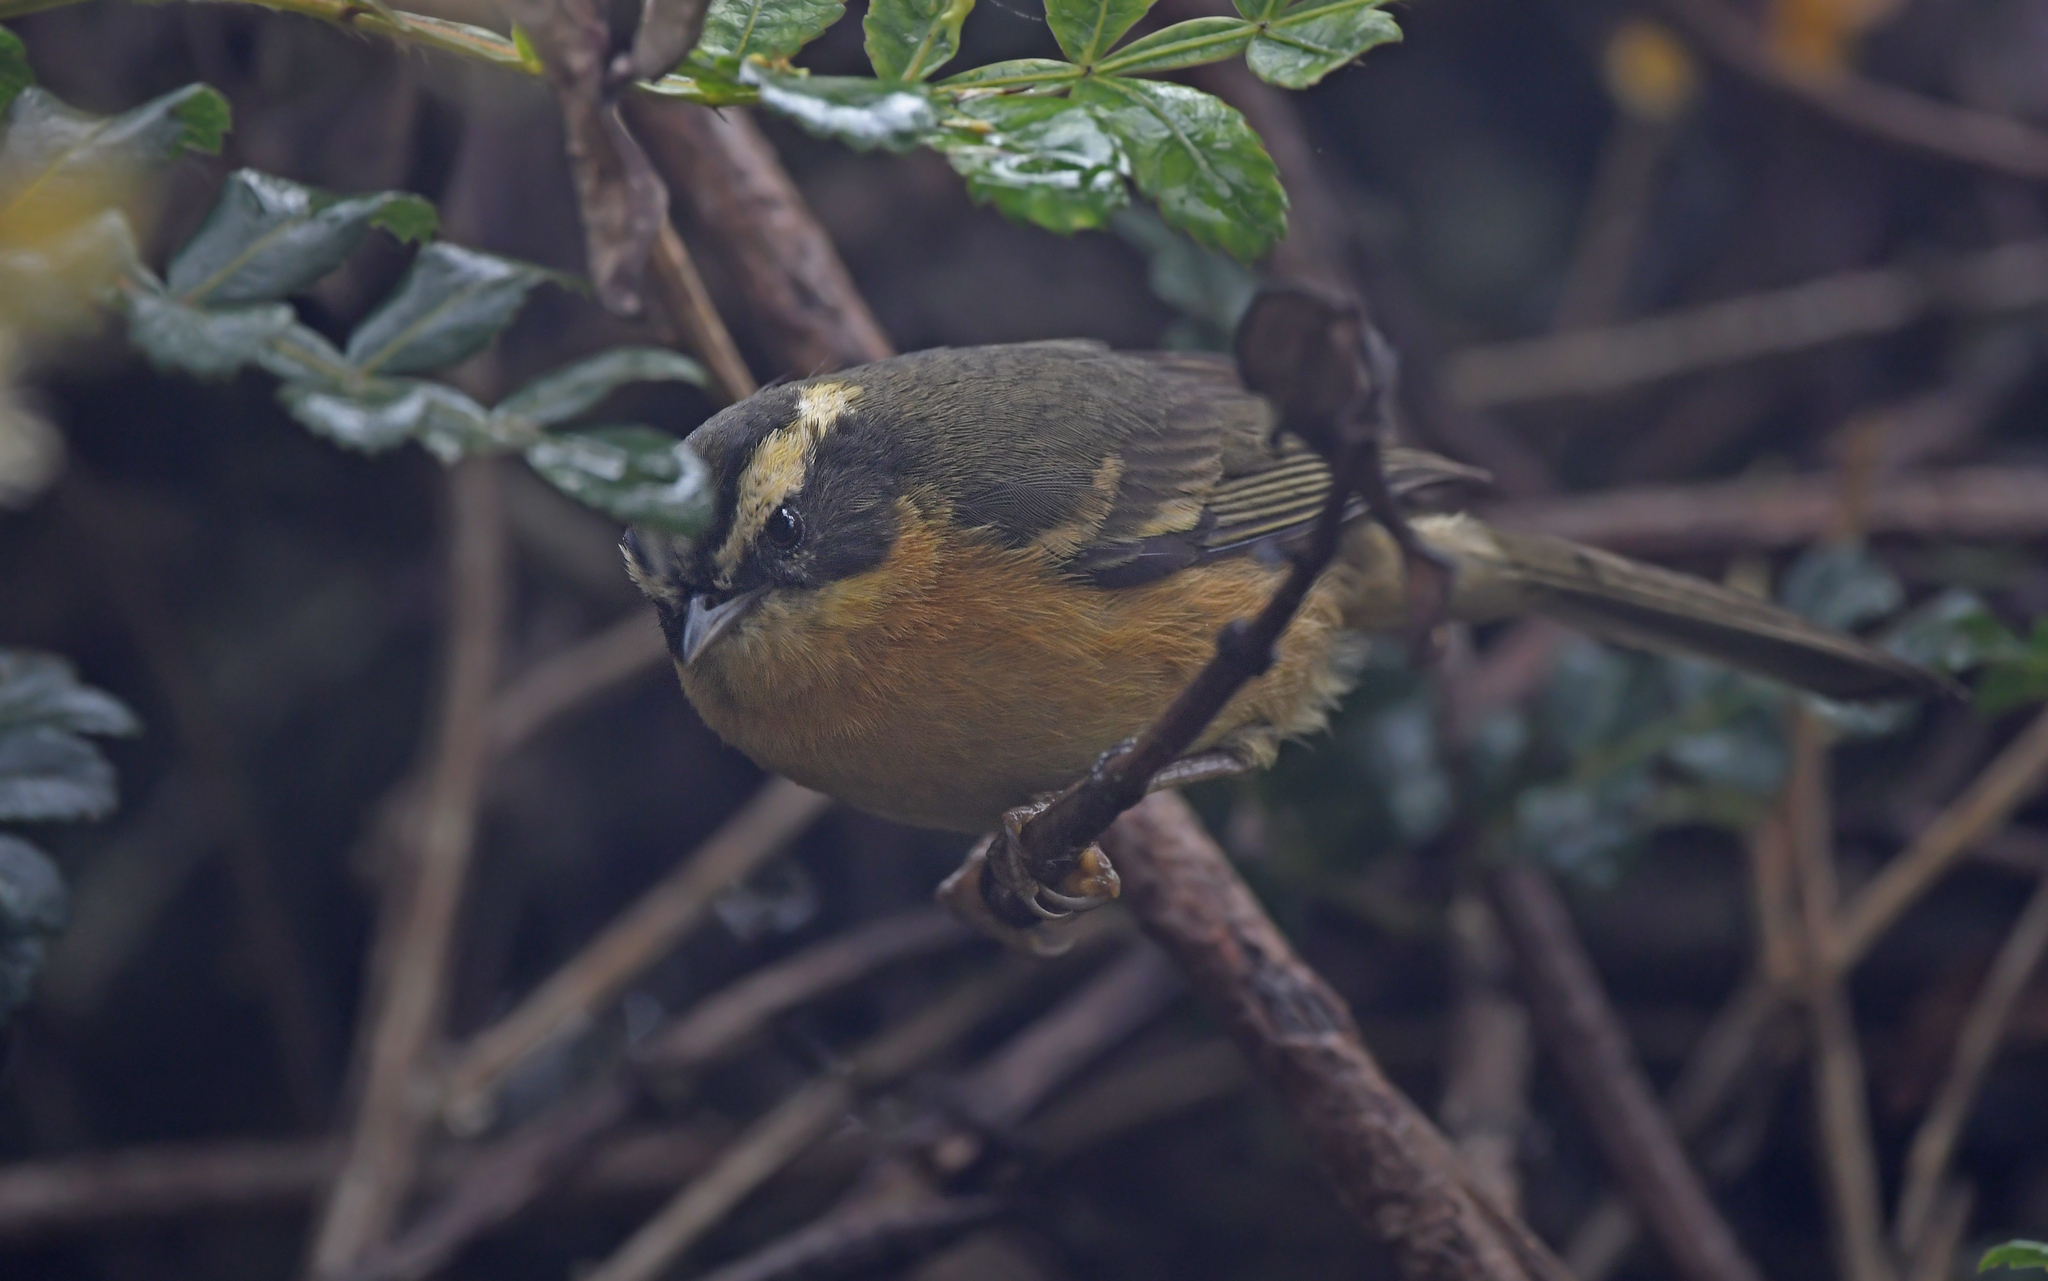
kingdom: Animalia
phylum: Chordata
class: Aves
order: Passeriformes
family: Thraupidae
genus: Microspingus
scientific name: Microspingus trifasciatus
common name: Three-striped hemispingus
